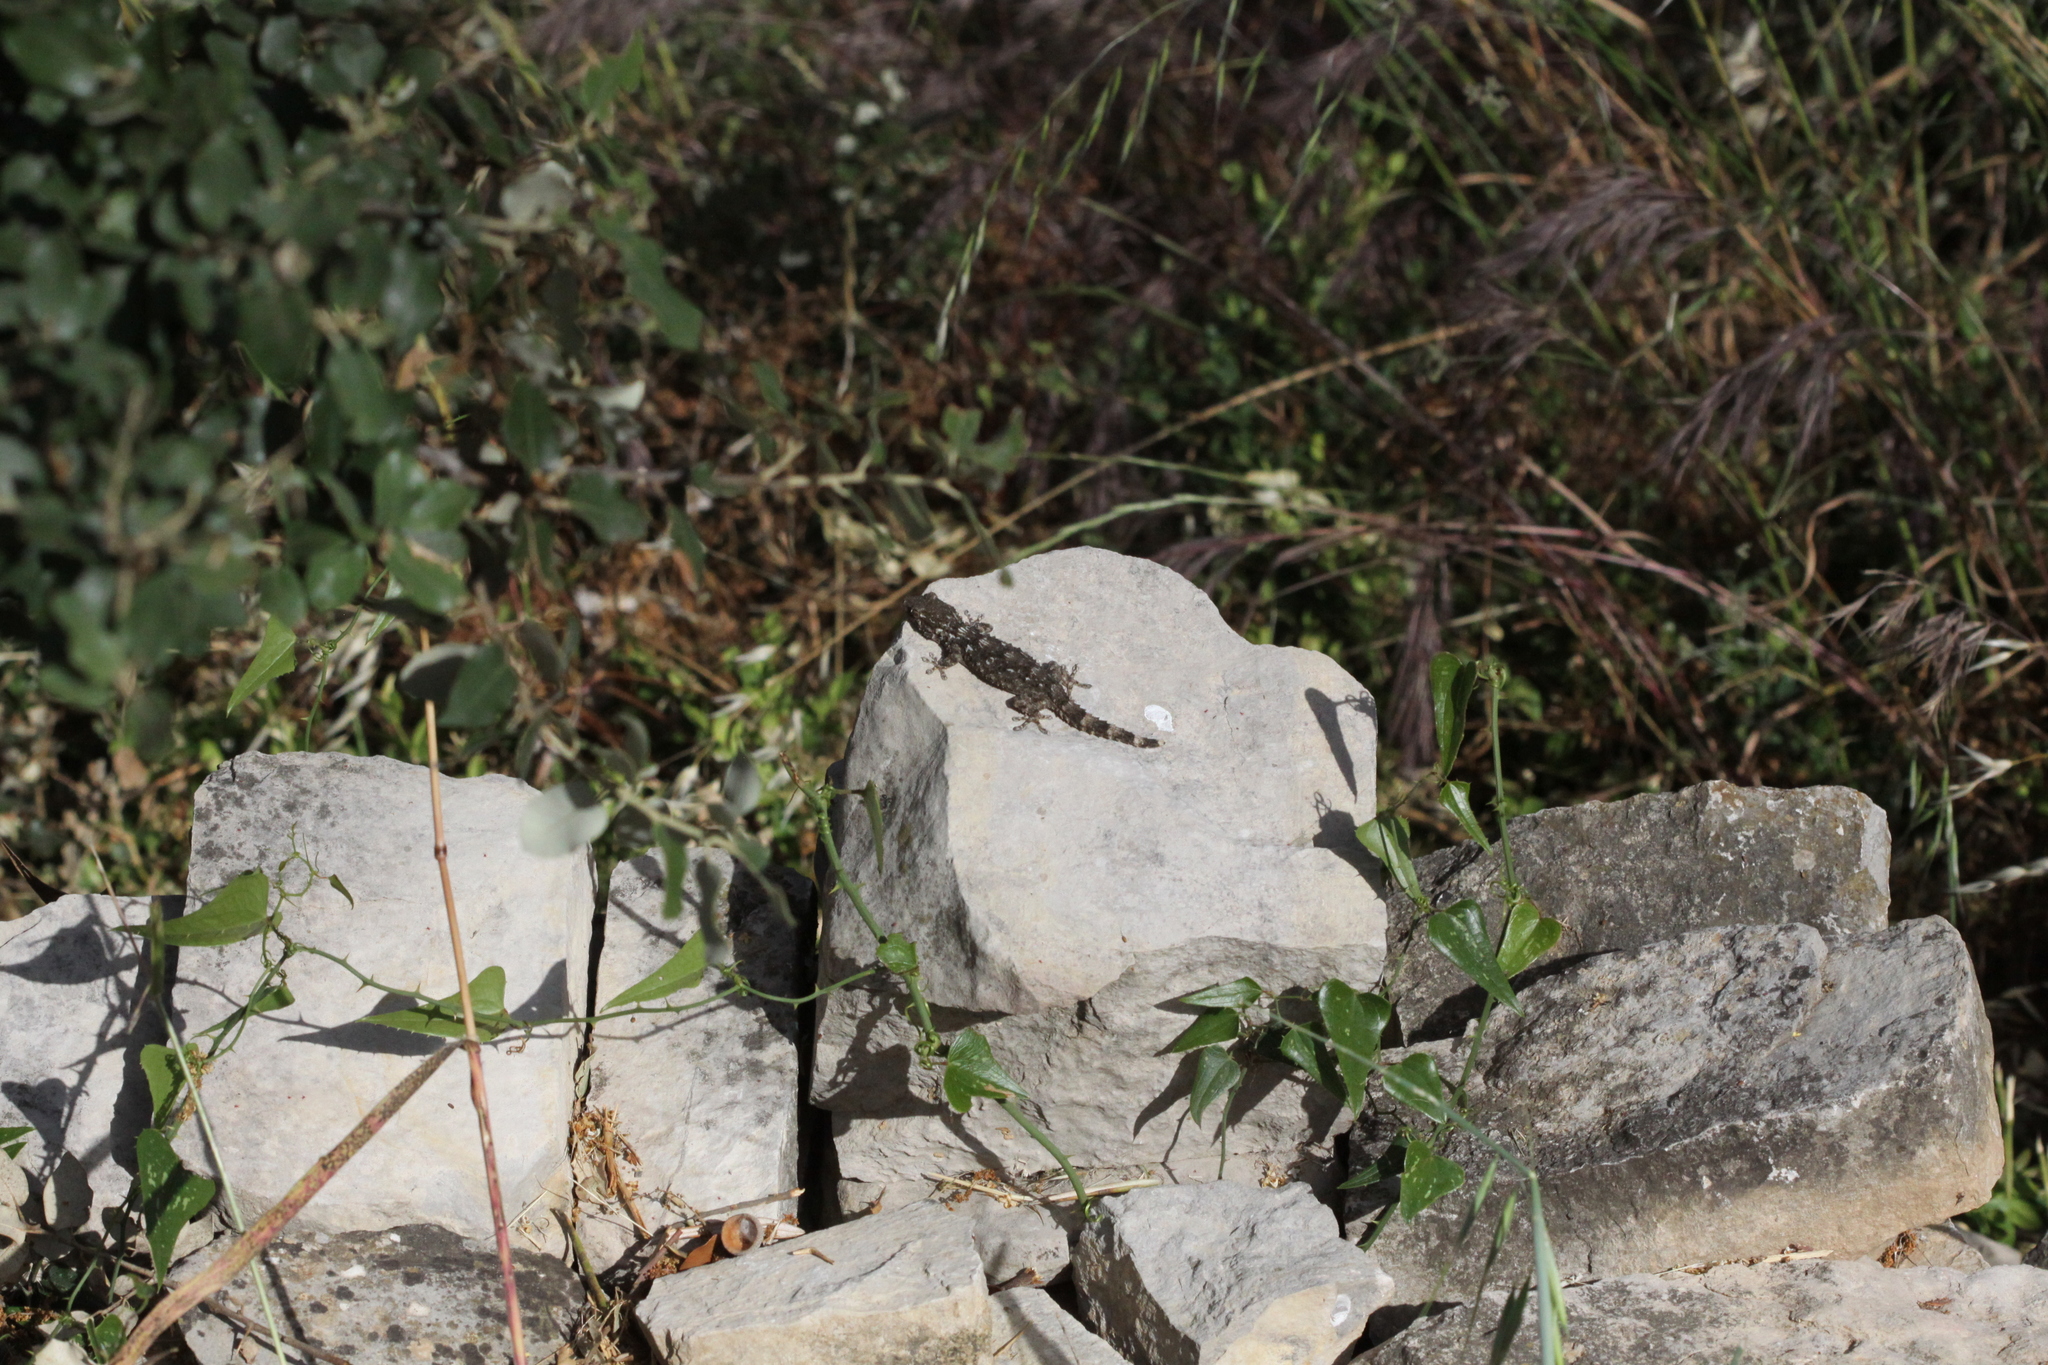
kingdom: Animalia
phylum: Chordata
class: Squamata
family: Phyllodactylidae
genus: Tarentola
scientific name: Tarentola mauritanica
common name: Moorish gecko
